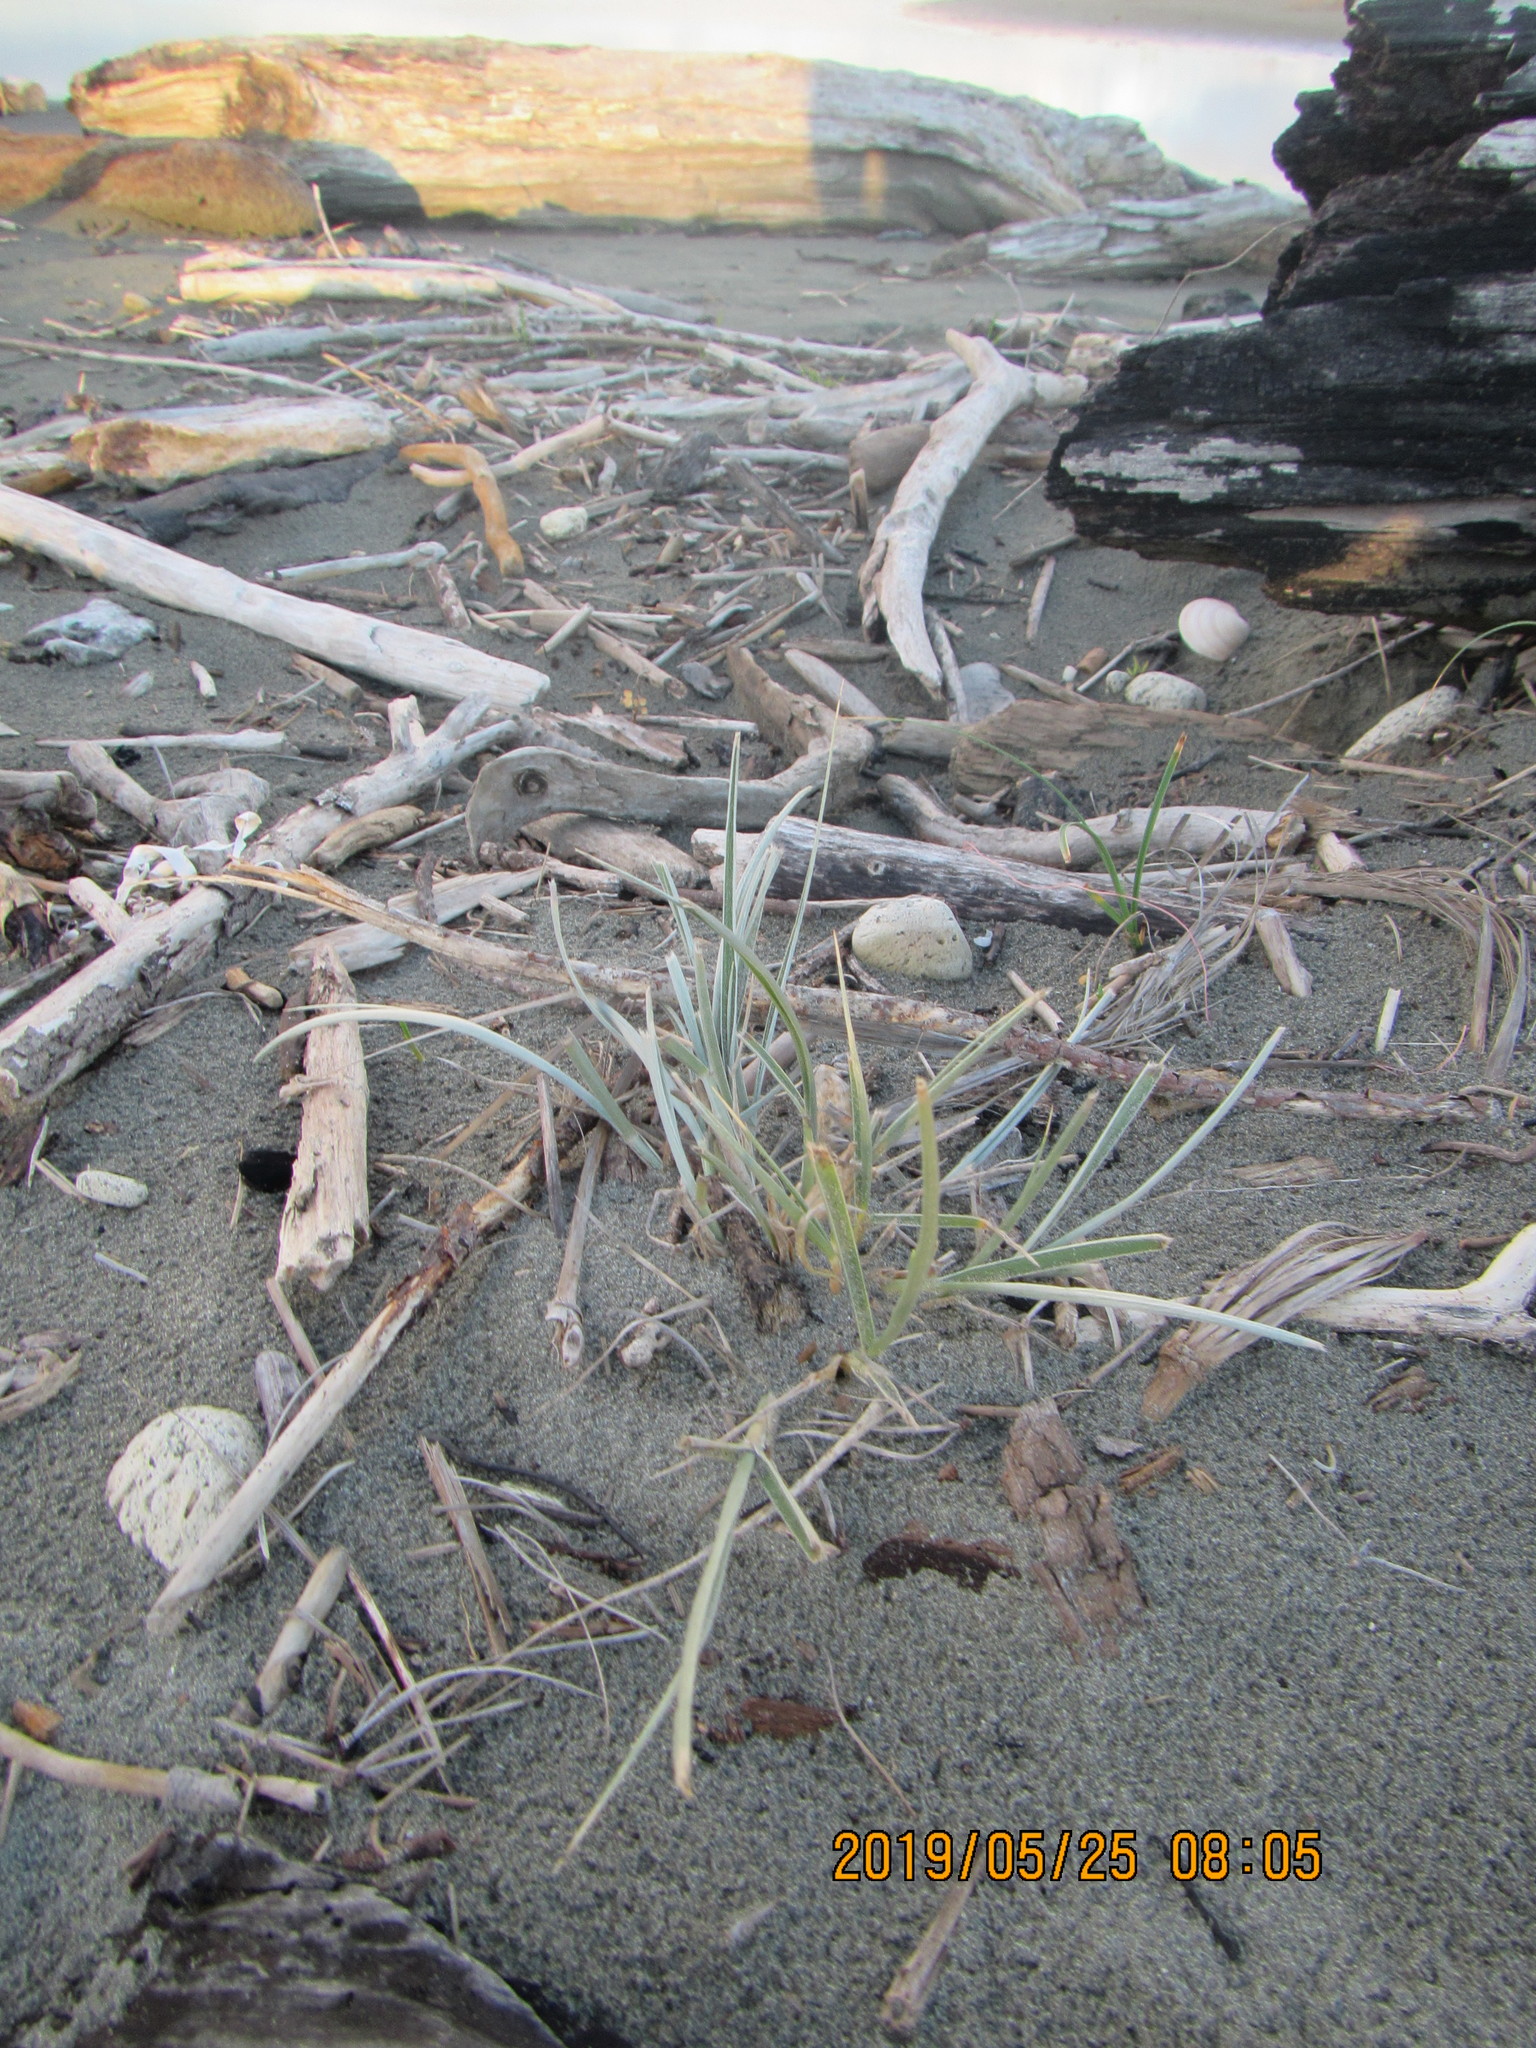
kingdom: Plantae
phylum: Tracheophyta
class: Liliopsida
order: Poales
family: Poaceae
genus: Spinifex
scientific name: Spinifex sericeus
